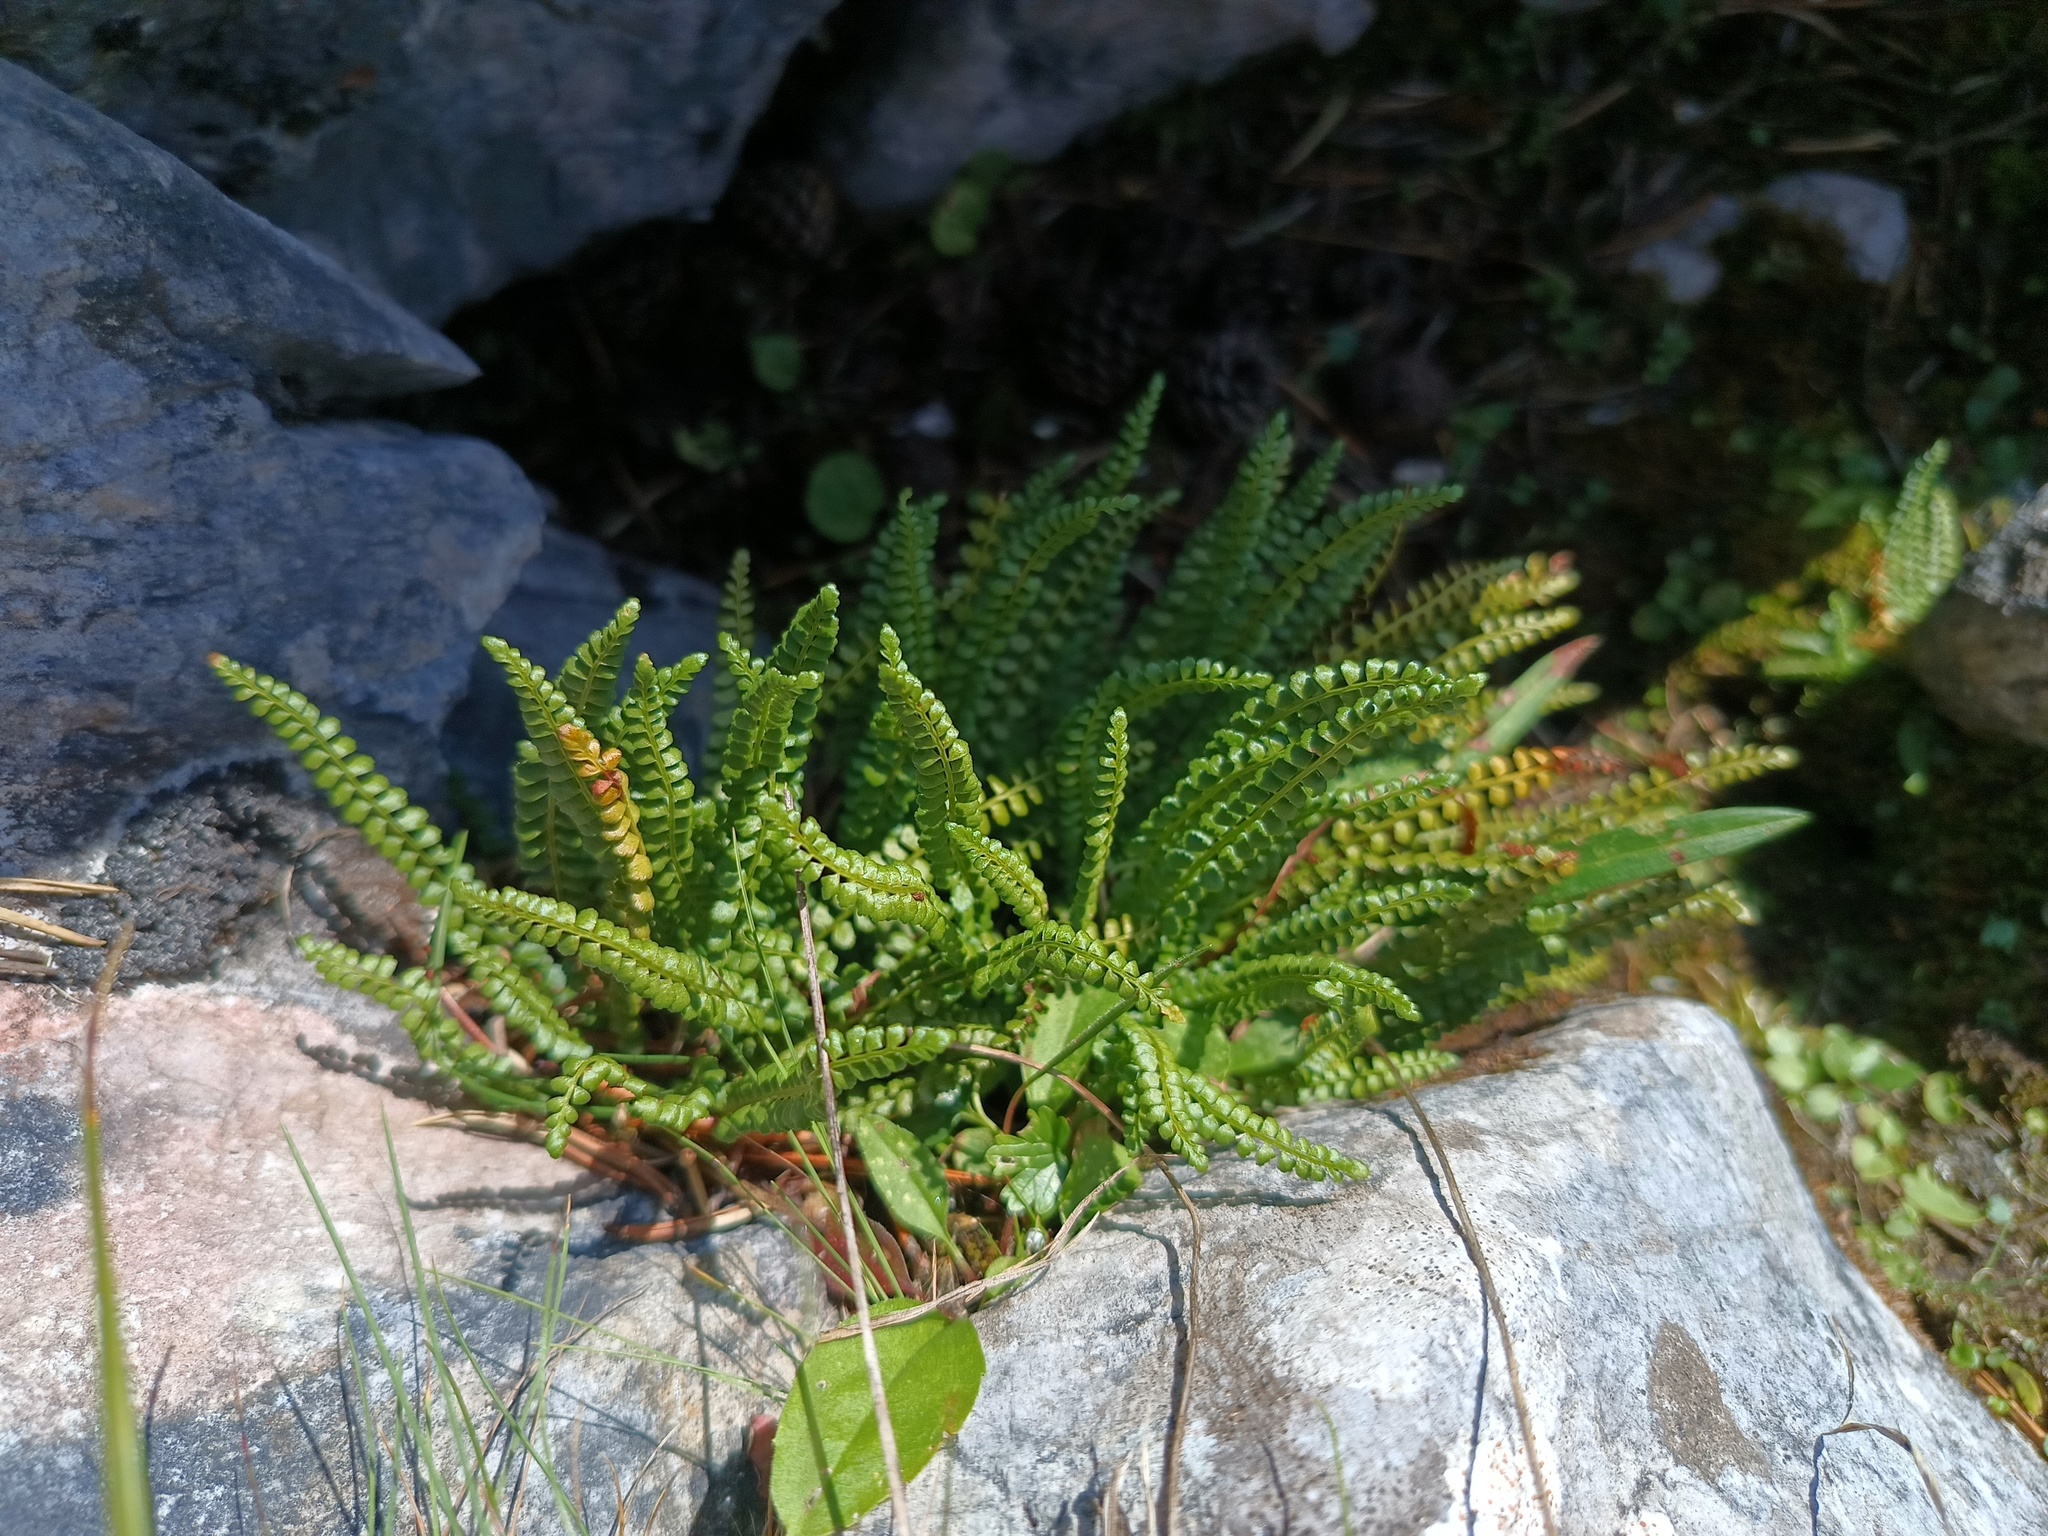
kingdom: Plantae
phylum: Tracheophyta
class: Polypodiopsida
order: Polypodiales
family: Aspleniaceae
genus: Asplenium
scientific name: Asplenium viride
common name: Green spleenwort
